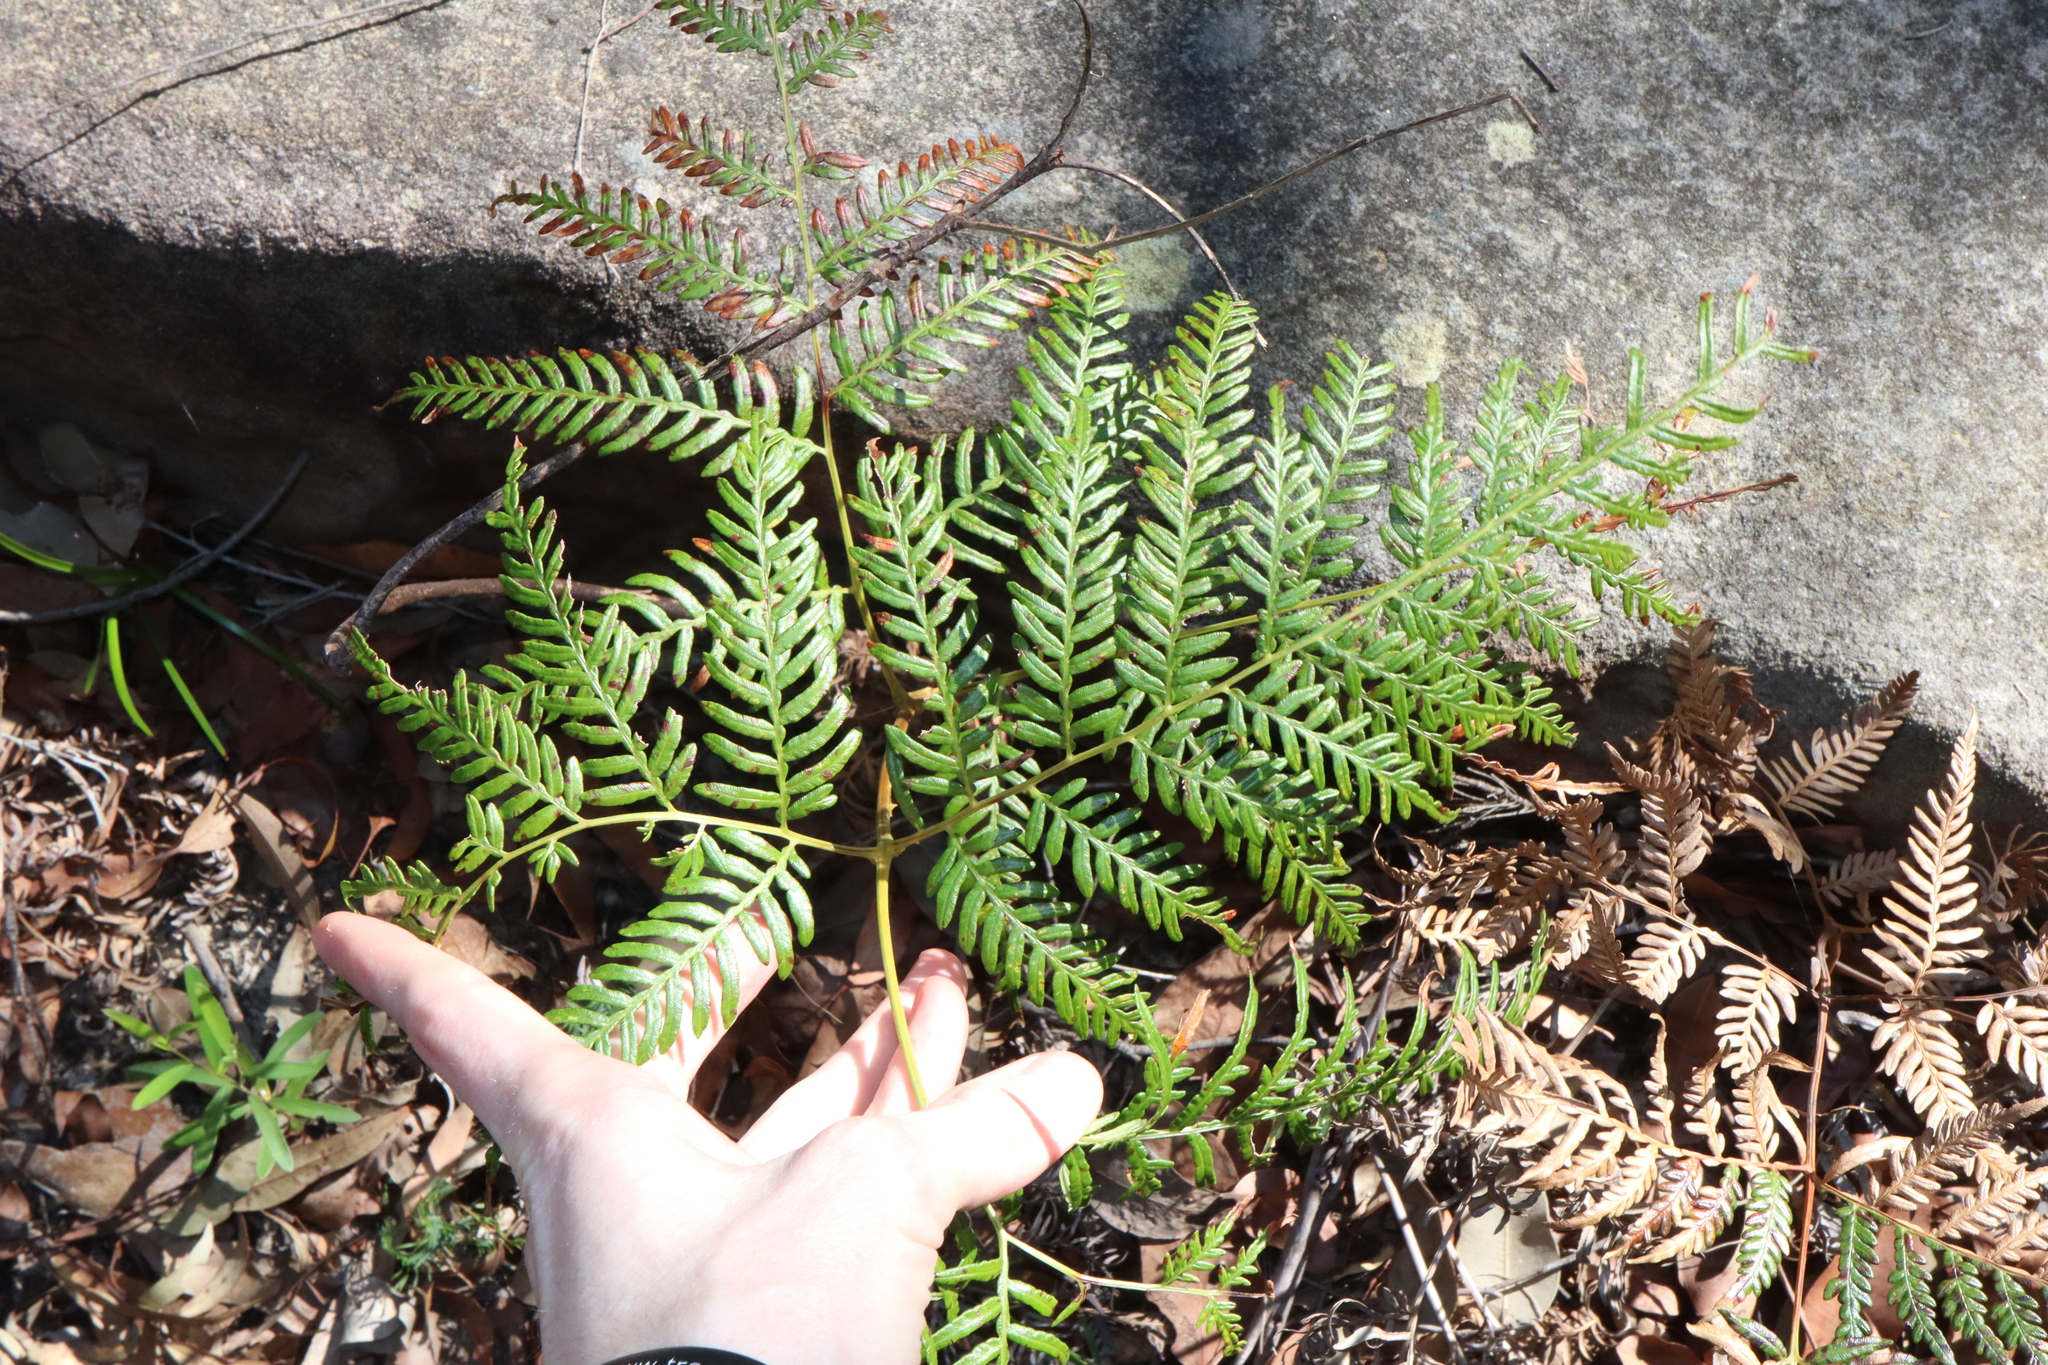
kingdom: Plantae
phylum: Tracheophyta
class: Polypodiopsida
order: Polypodiales
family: Dennstaedtiaceae
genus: Pteridium
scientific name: Pteridium esculentum
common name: Bracken fern
